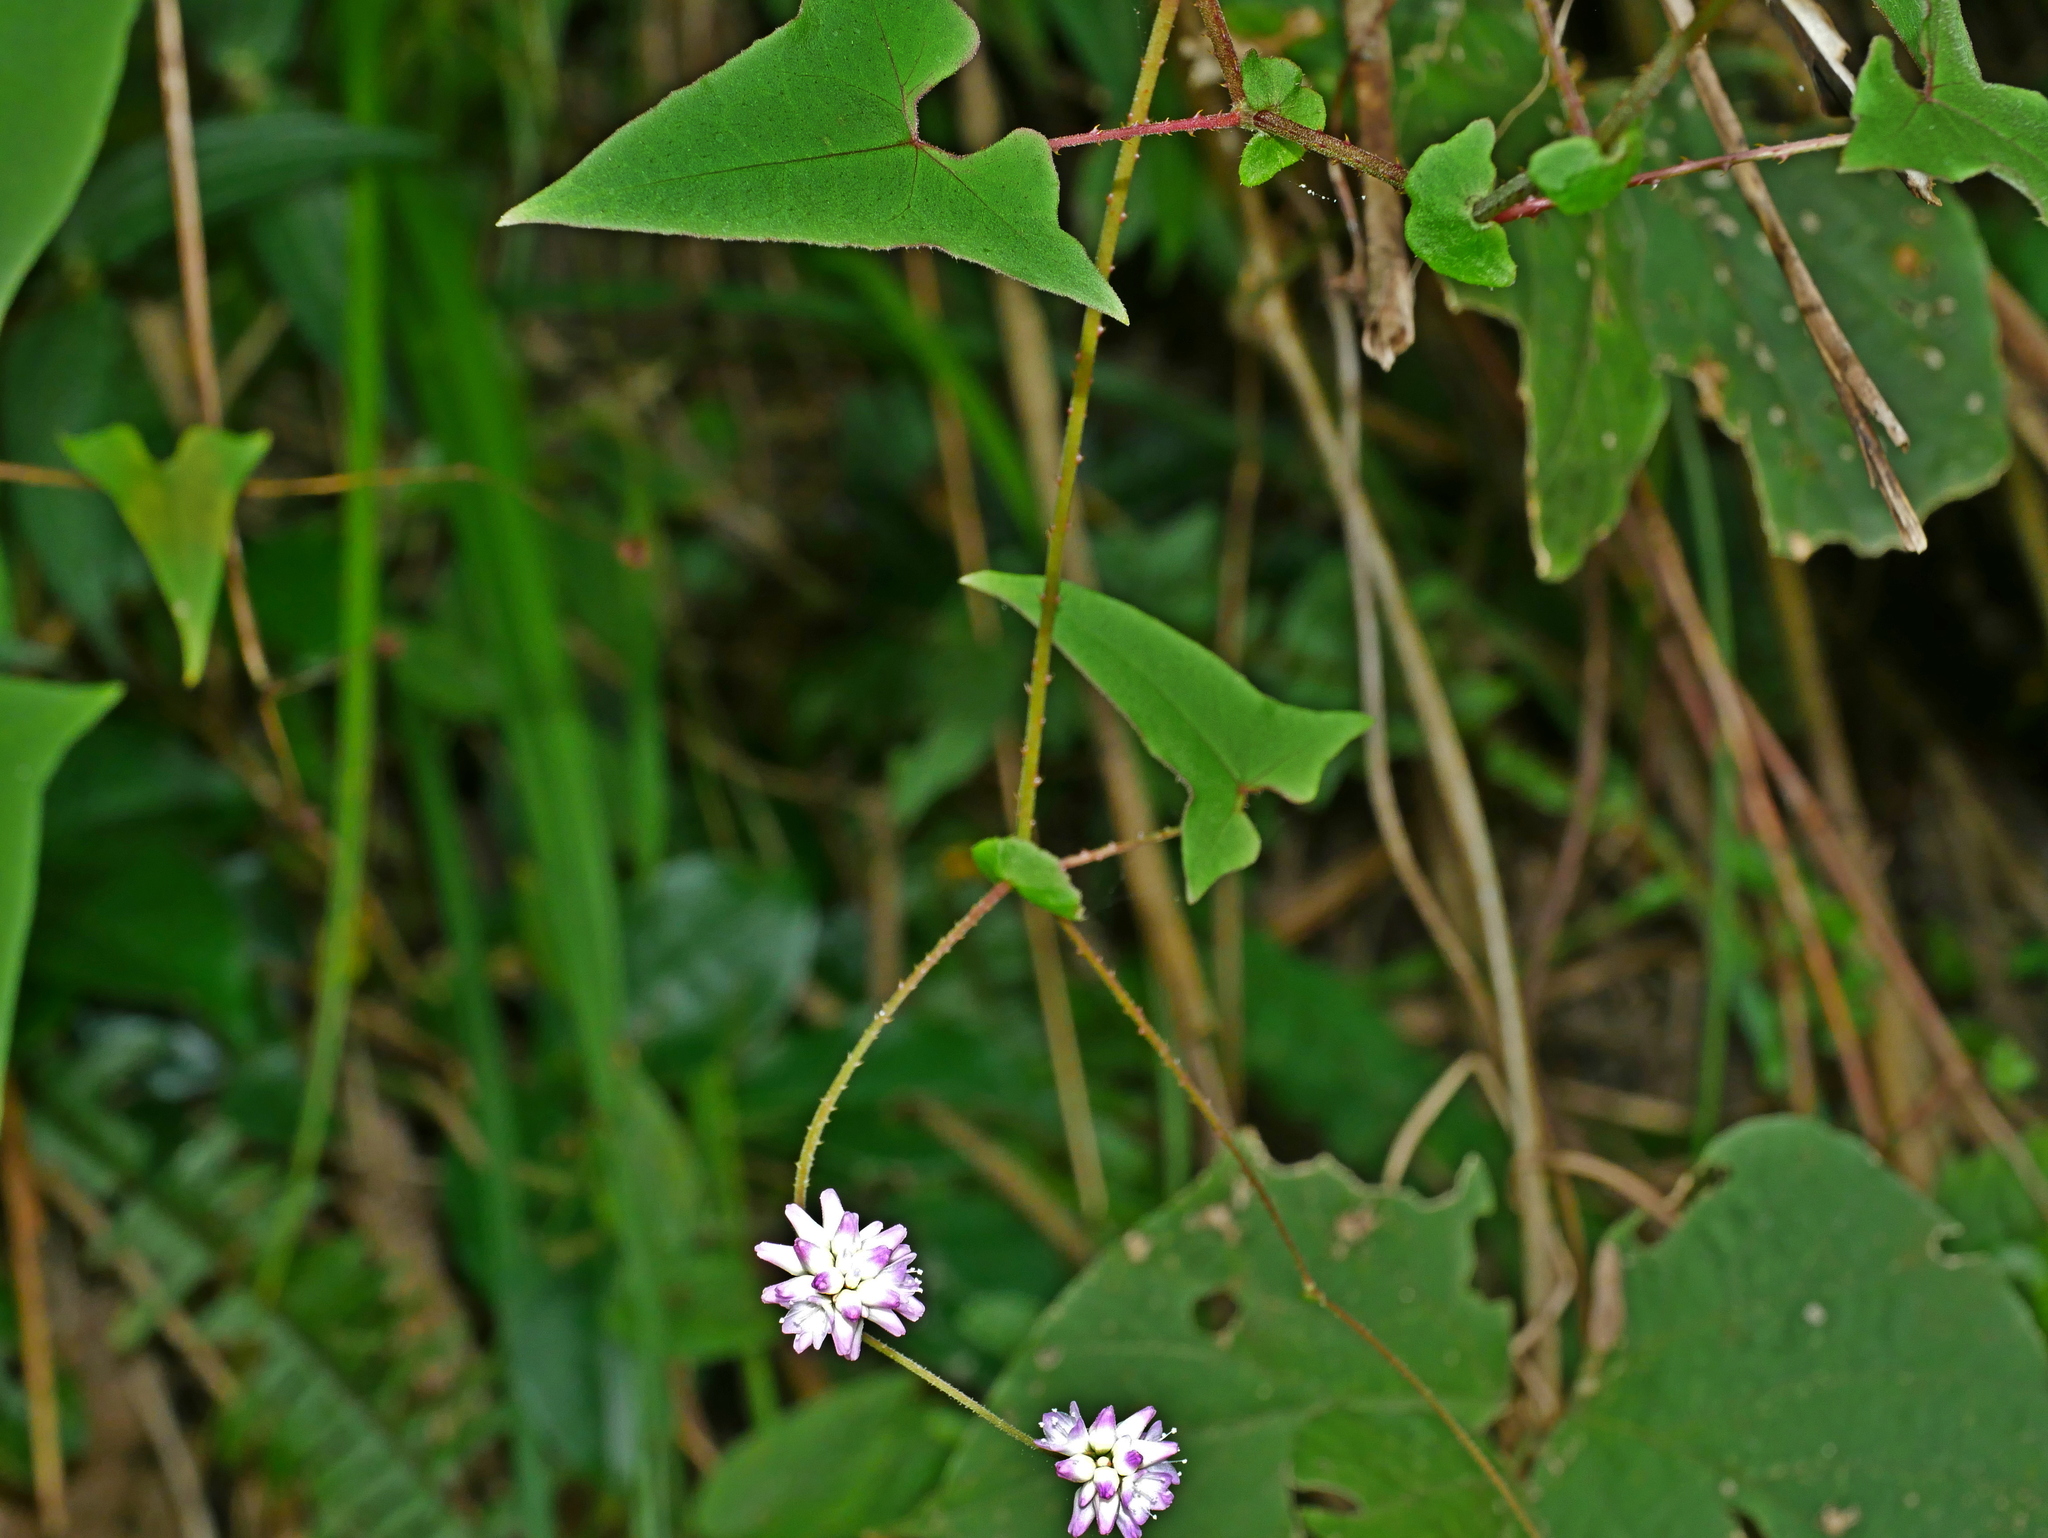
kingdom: Plantae
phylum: Tracheophyta
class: Magnoliopsida
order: Caryophyllales
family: Polygonaceae
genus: Persicaria
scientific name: Persicaria senticosa
